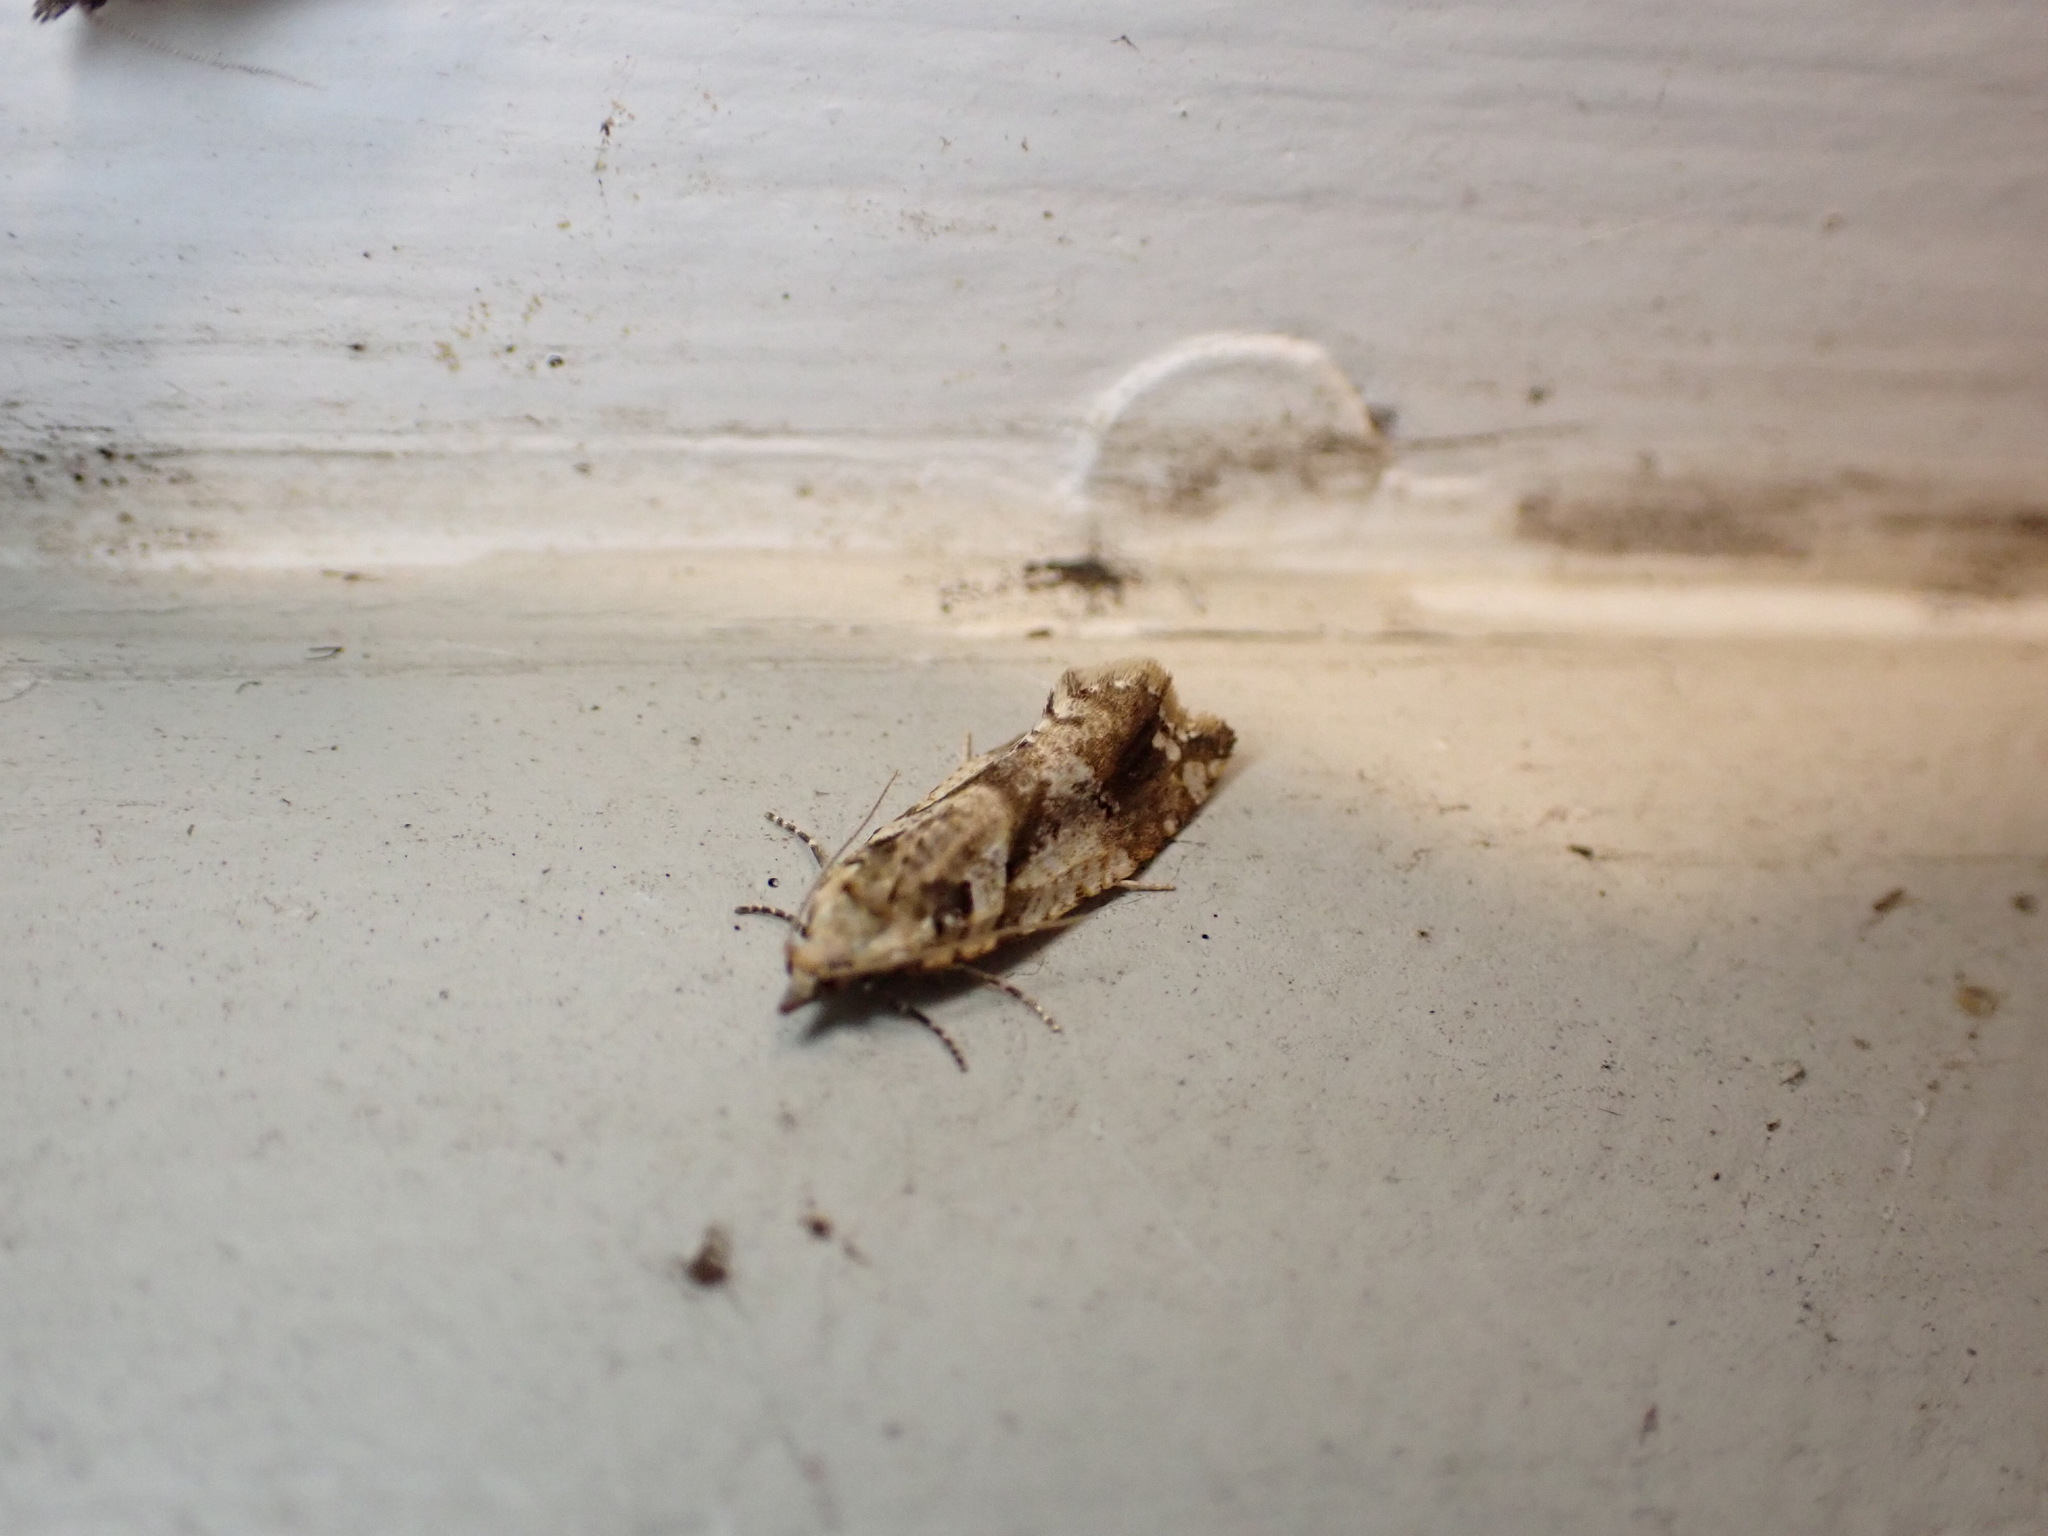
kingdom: Animalia
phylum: Arthropoda
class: Insecta
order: Lepidoptera
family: Tortricidae
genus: Pyrgotis
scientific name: Pyrgotis plagiatana
